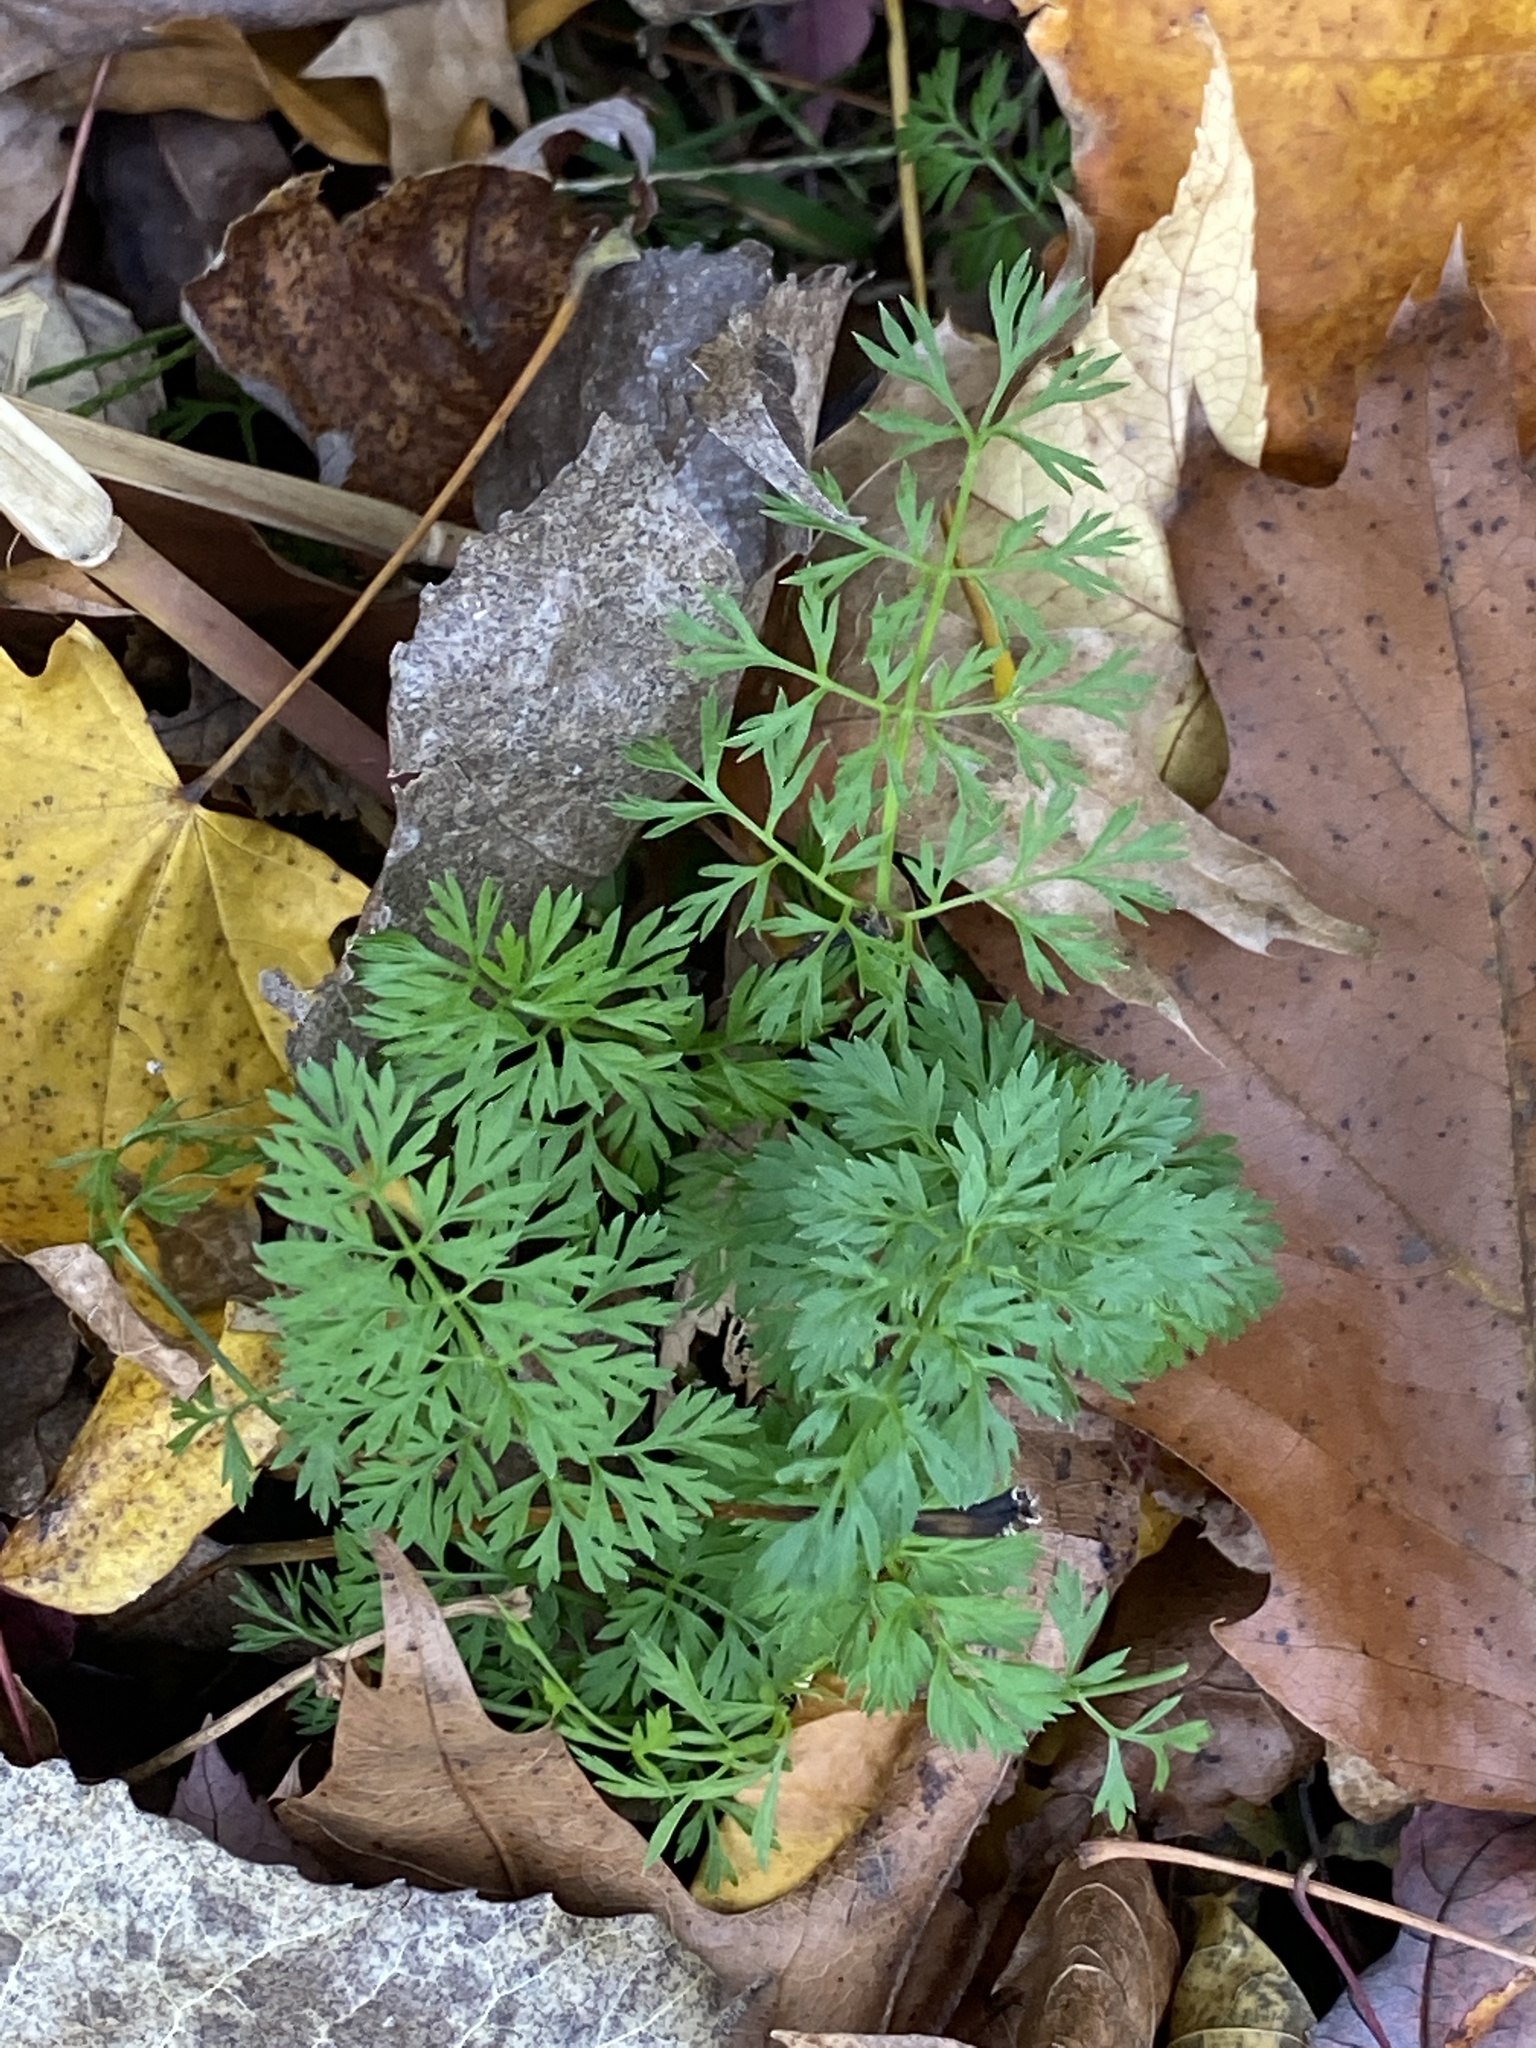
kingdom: Plantae
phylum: Tracheophyta
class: Magnoliopsida
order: Apiales
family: Apiaceae
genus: Daucus
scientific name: Daucus carota
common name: Wild carrot
